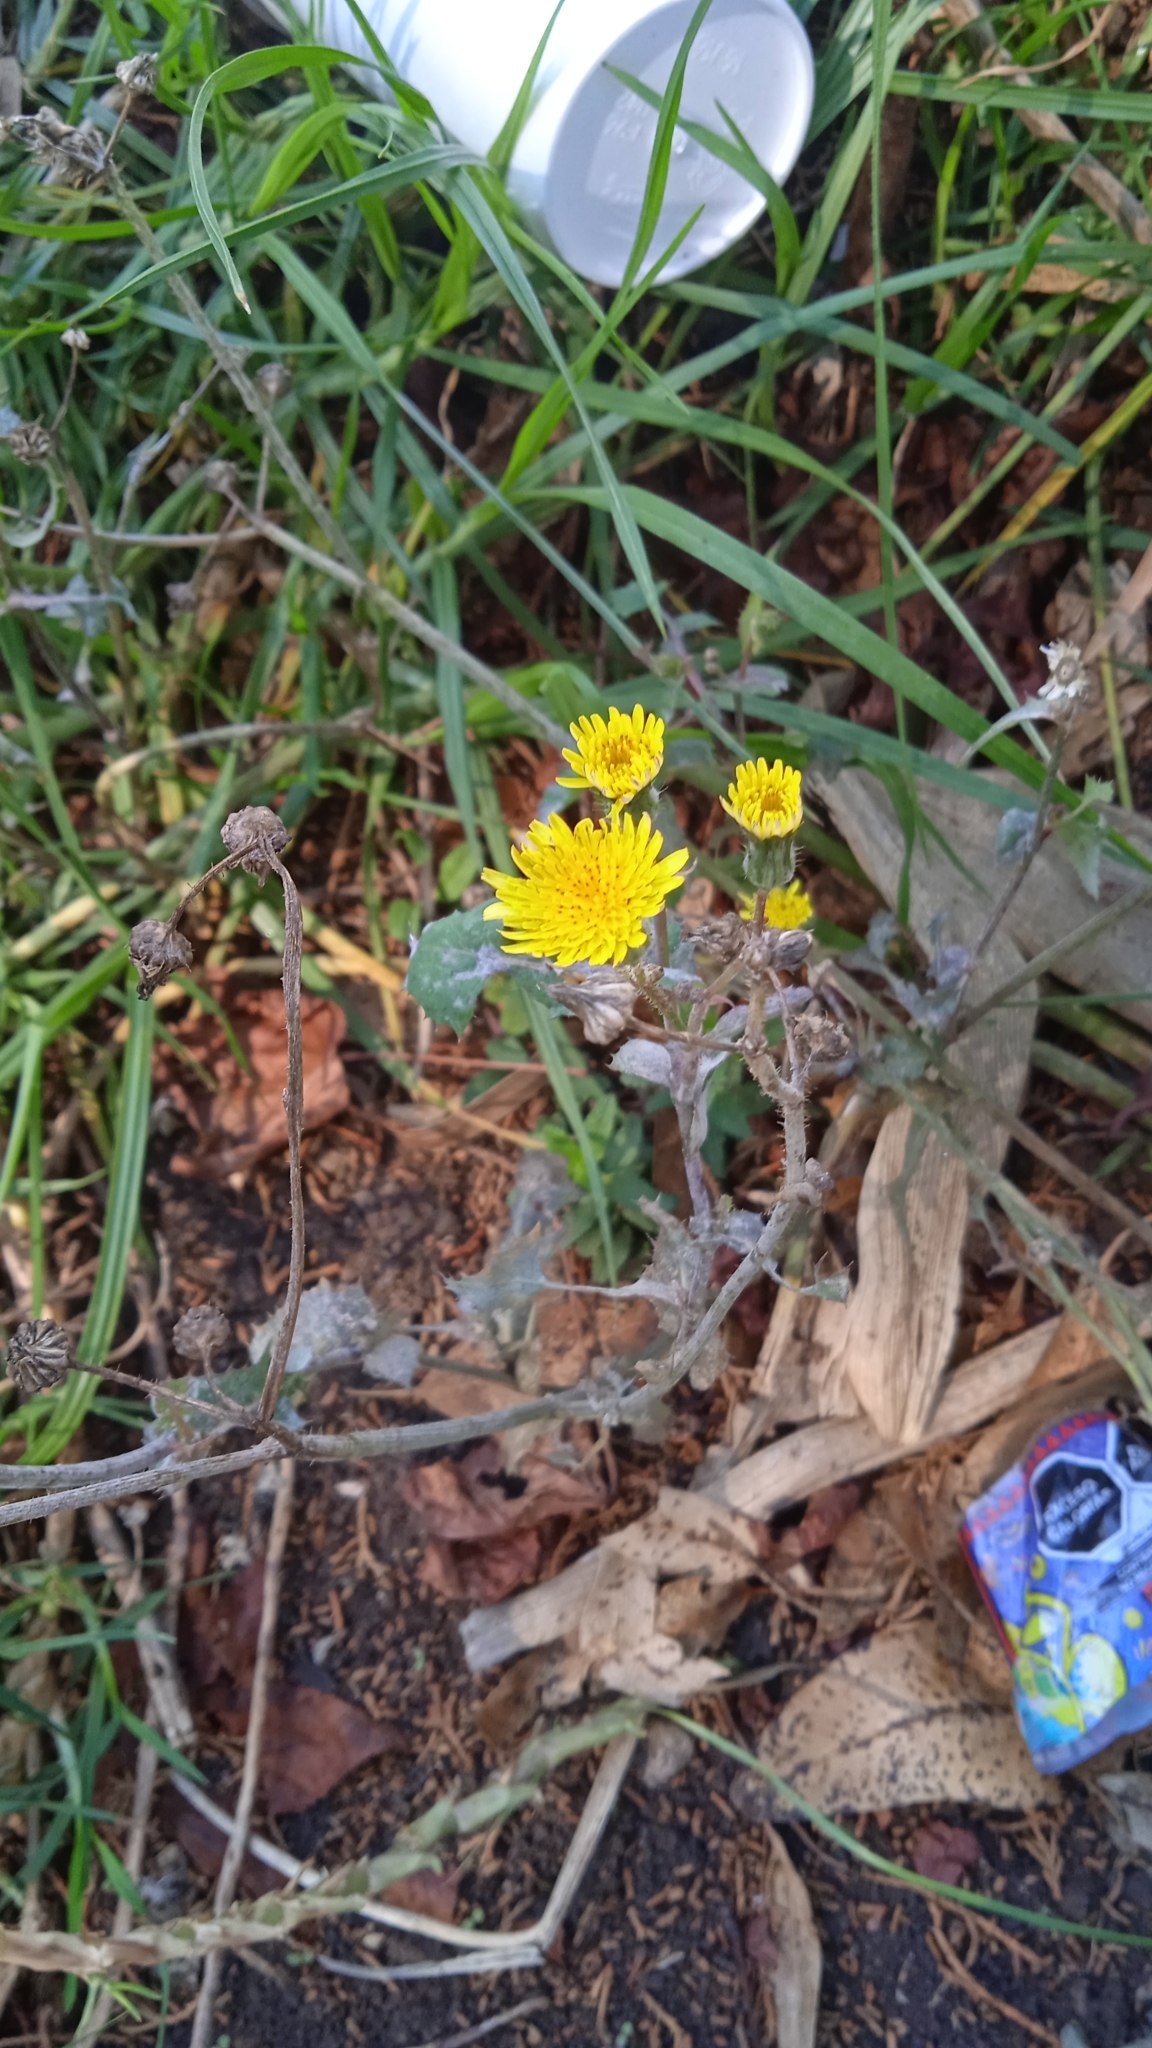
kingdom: Plantae
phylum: Tracheophyta
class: Magnoliopsida
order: Asterales
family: Asteraceae
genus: Sonchus
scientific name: Sonchus oleraceus
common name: Common sowthistle
